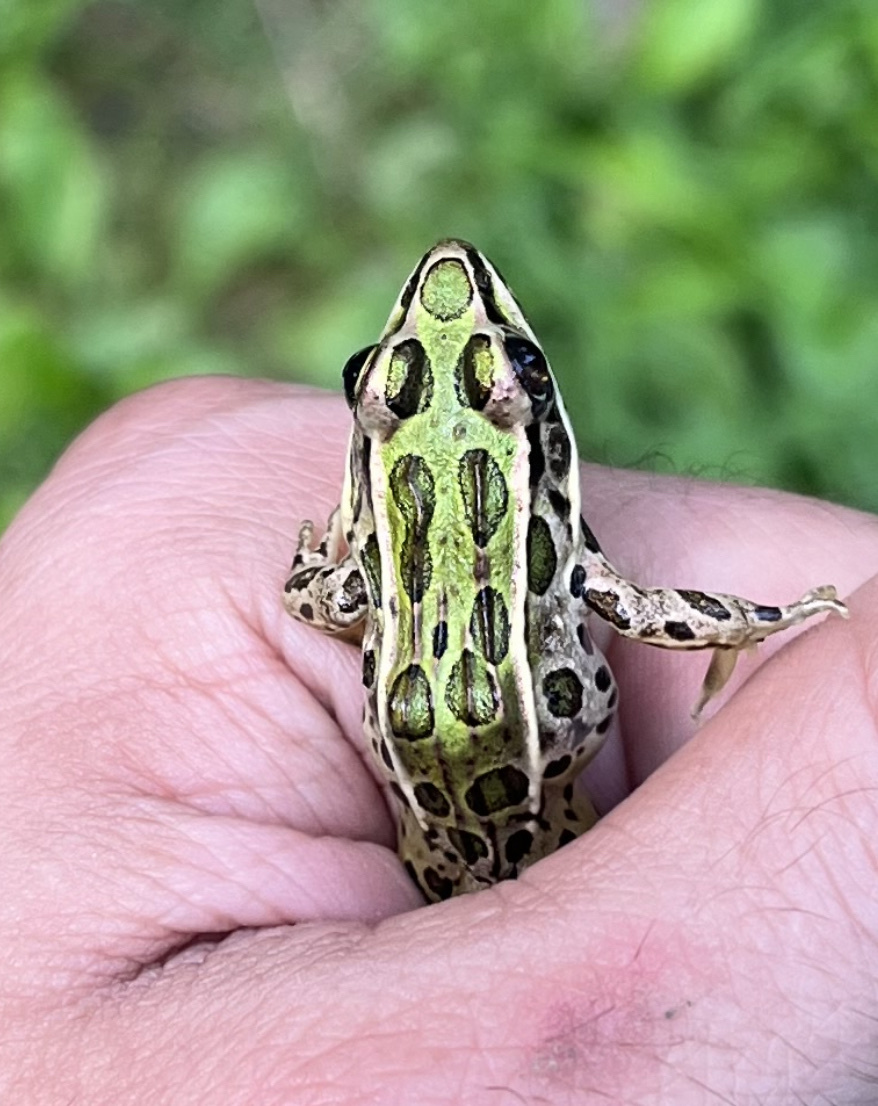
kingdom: Animalia
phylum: Chordata
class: Amphibia
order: Anura
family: Ranidae
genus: Lithobates
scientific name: Lithobates pipiens
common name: Northern leopard frog
